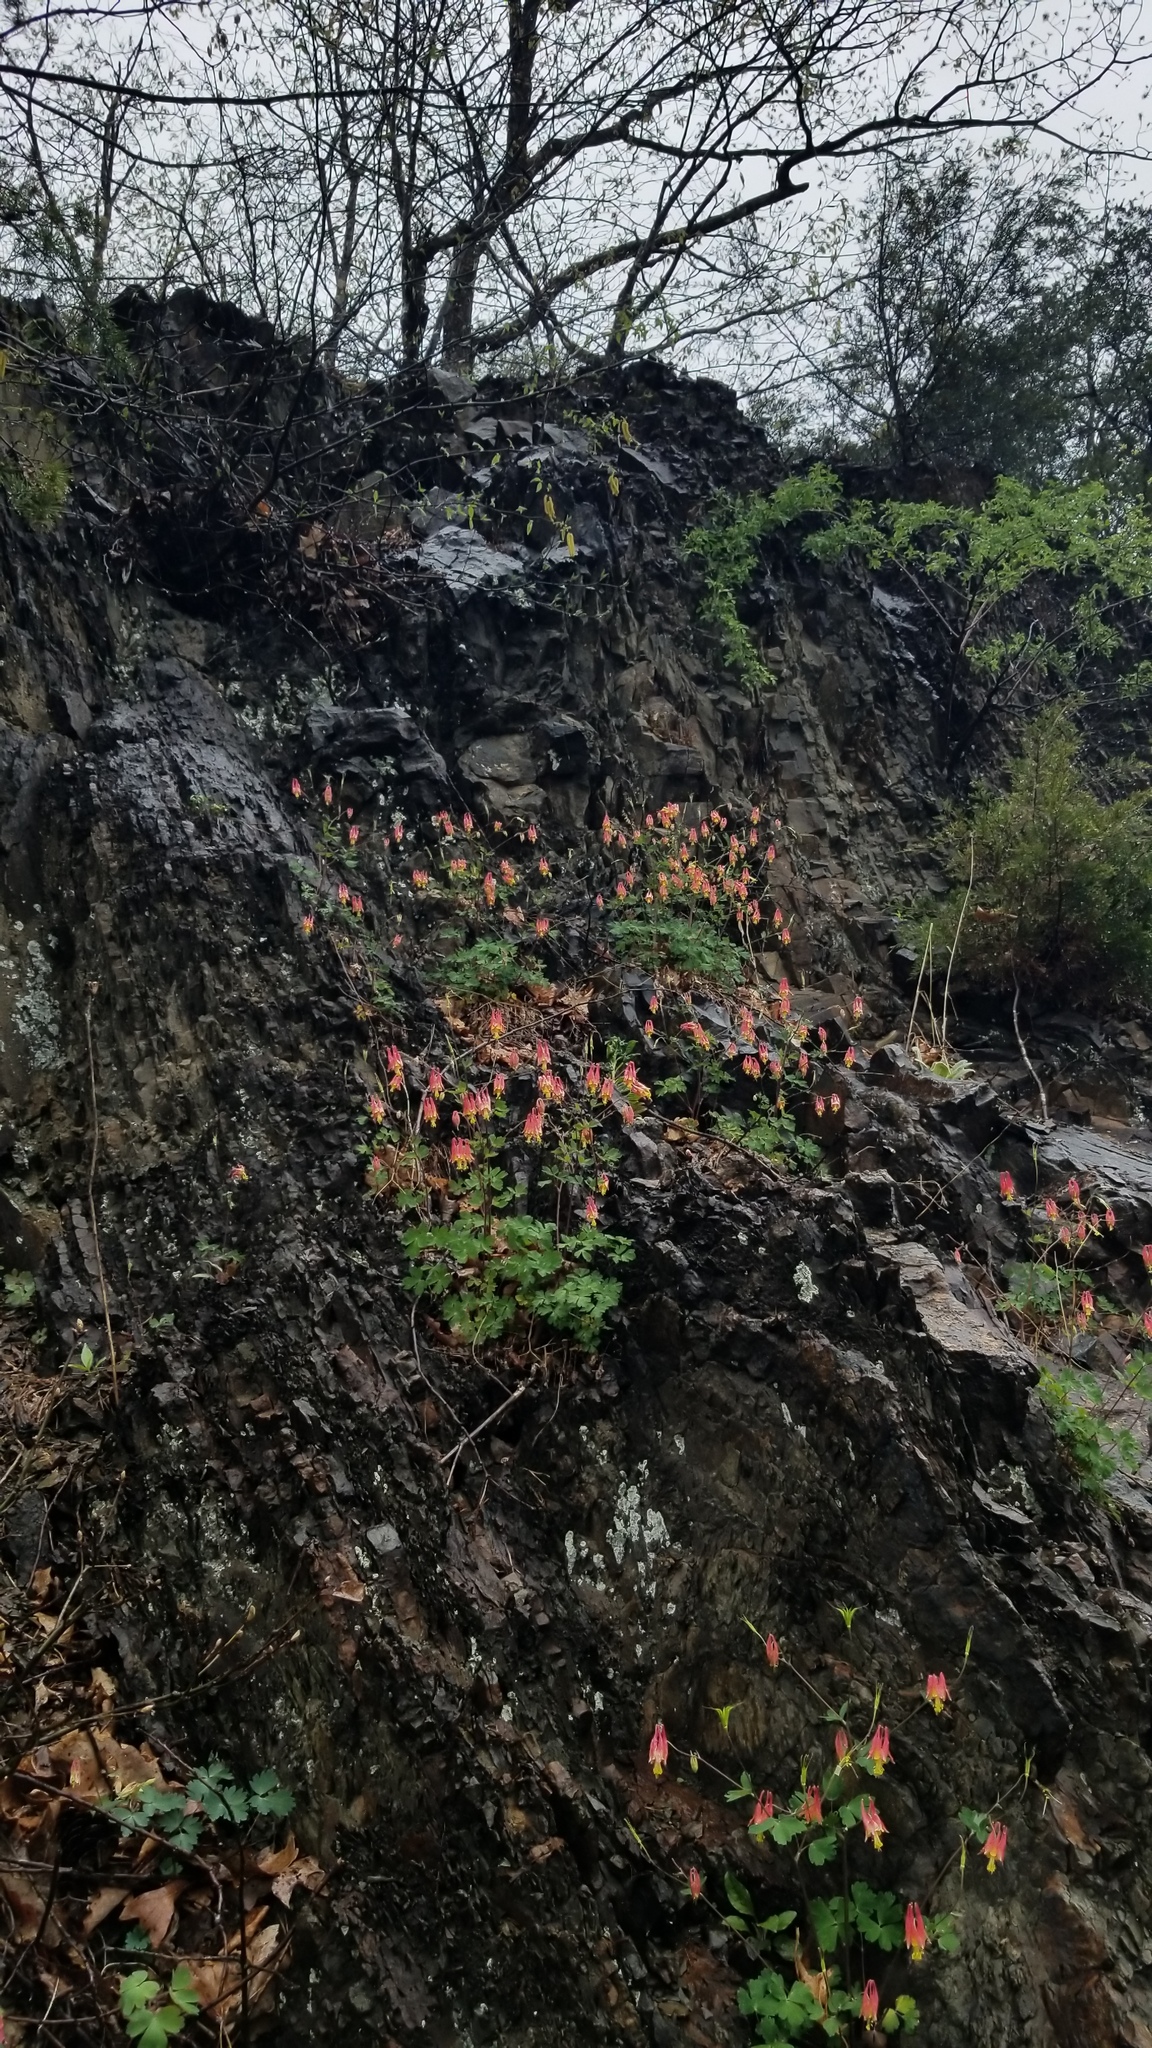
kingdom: Plantae
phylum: Tracheophyta
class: Magnoliopsida
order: Ranunculales
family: Ranunculaceae
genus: Aquilegia
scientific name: Aquilegia canadensis
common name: American columbine
